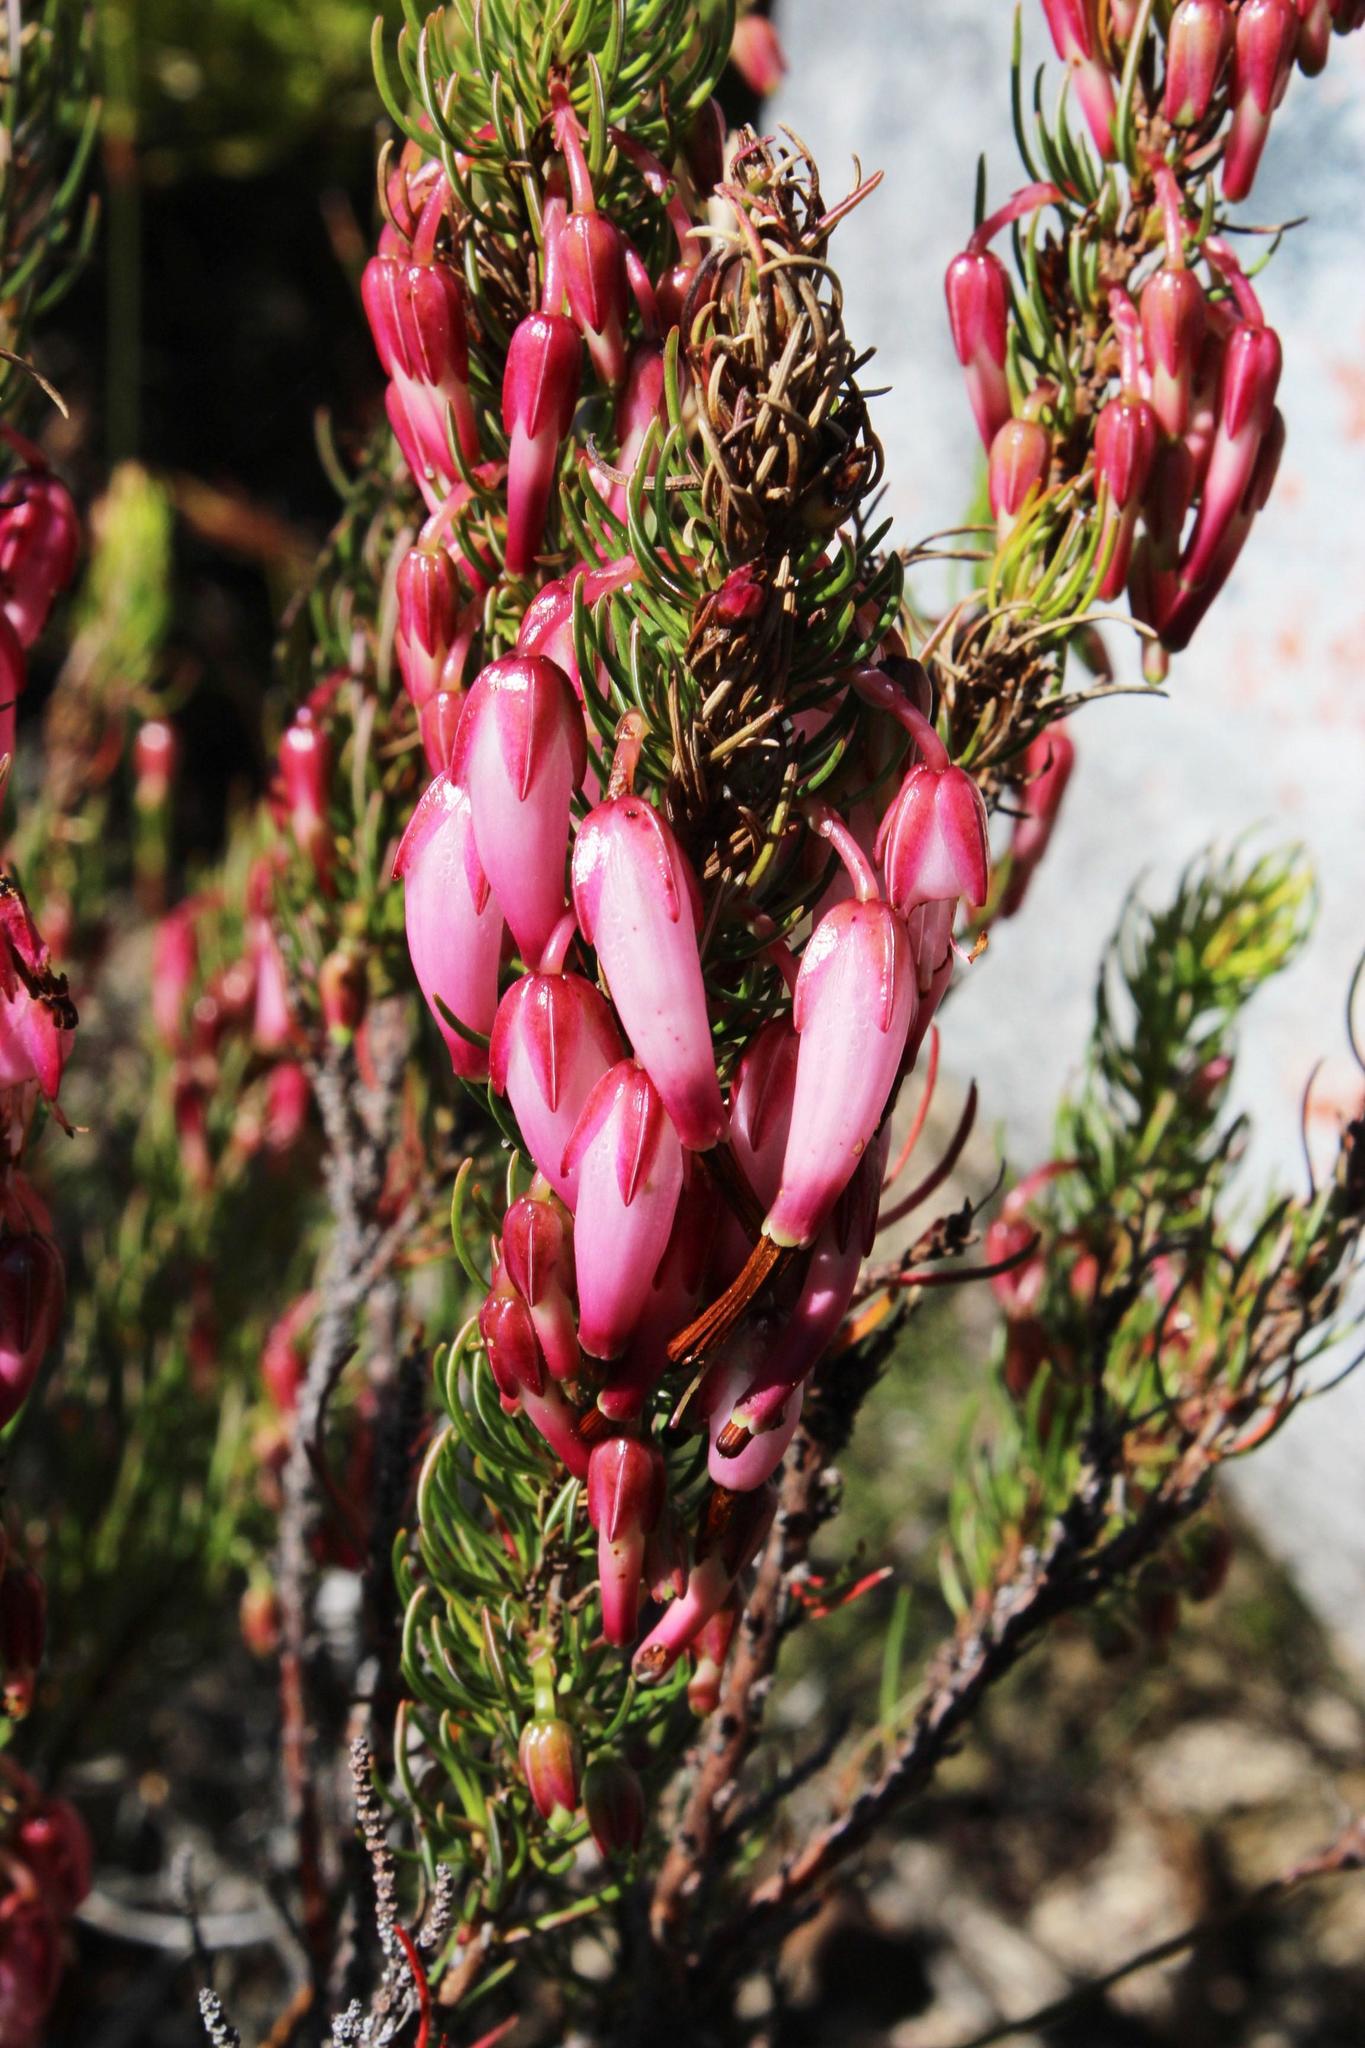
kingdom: Plantae
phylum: Tracheophyta
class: Magnoliopsida
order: Ericales
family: Ericaceae
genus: Erica
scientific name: Erica plukenetii
